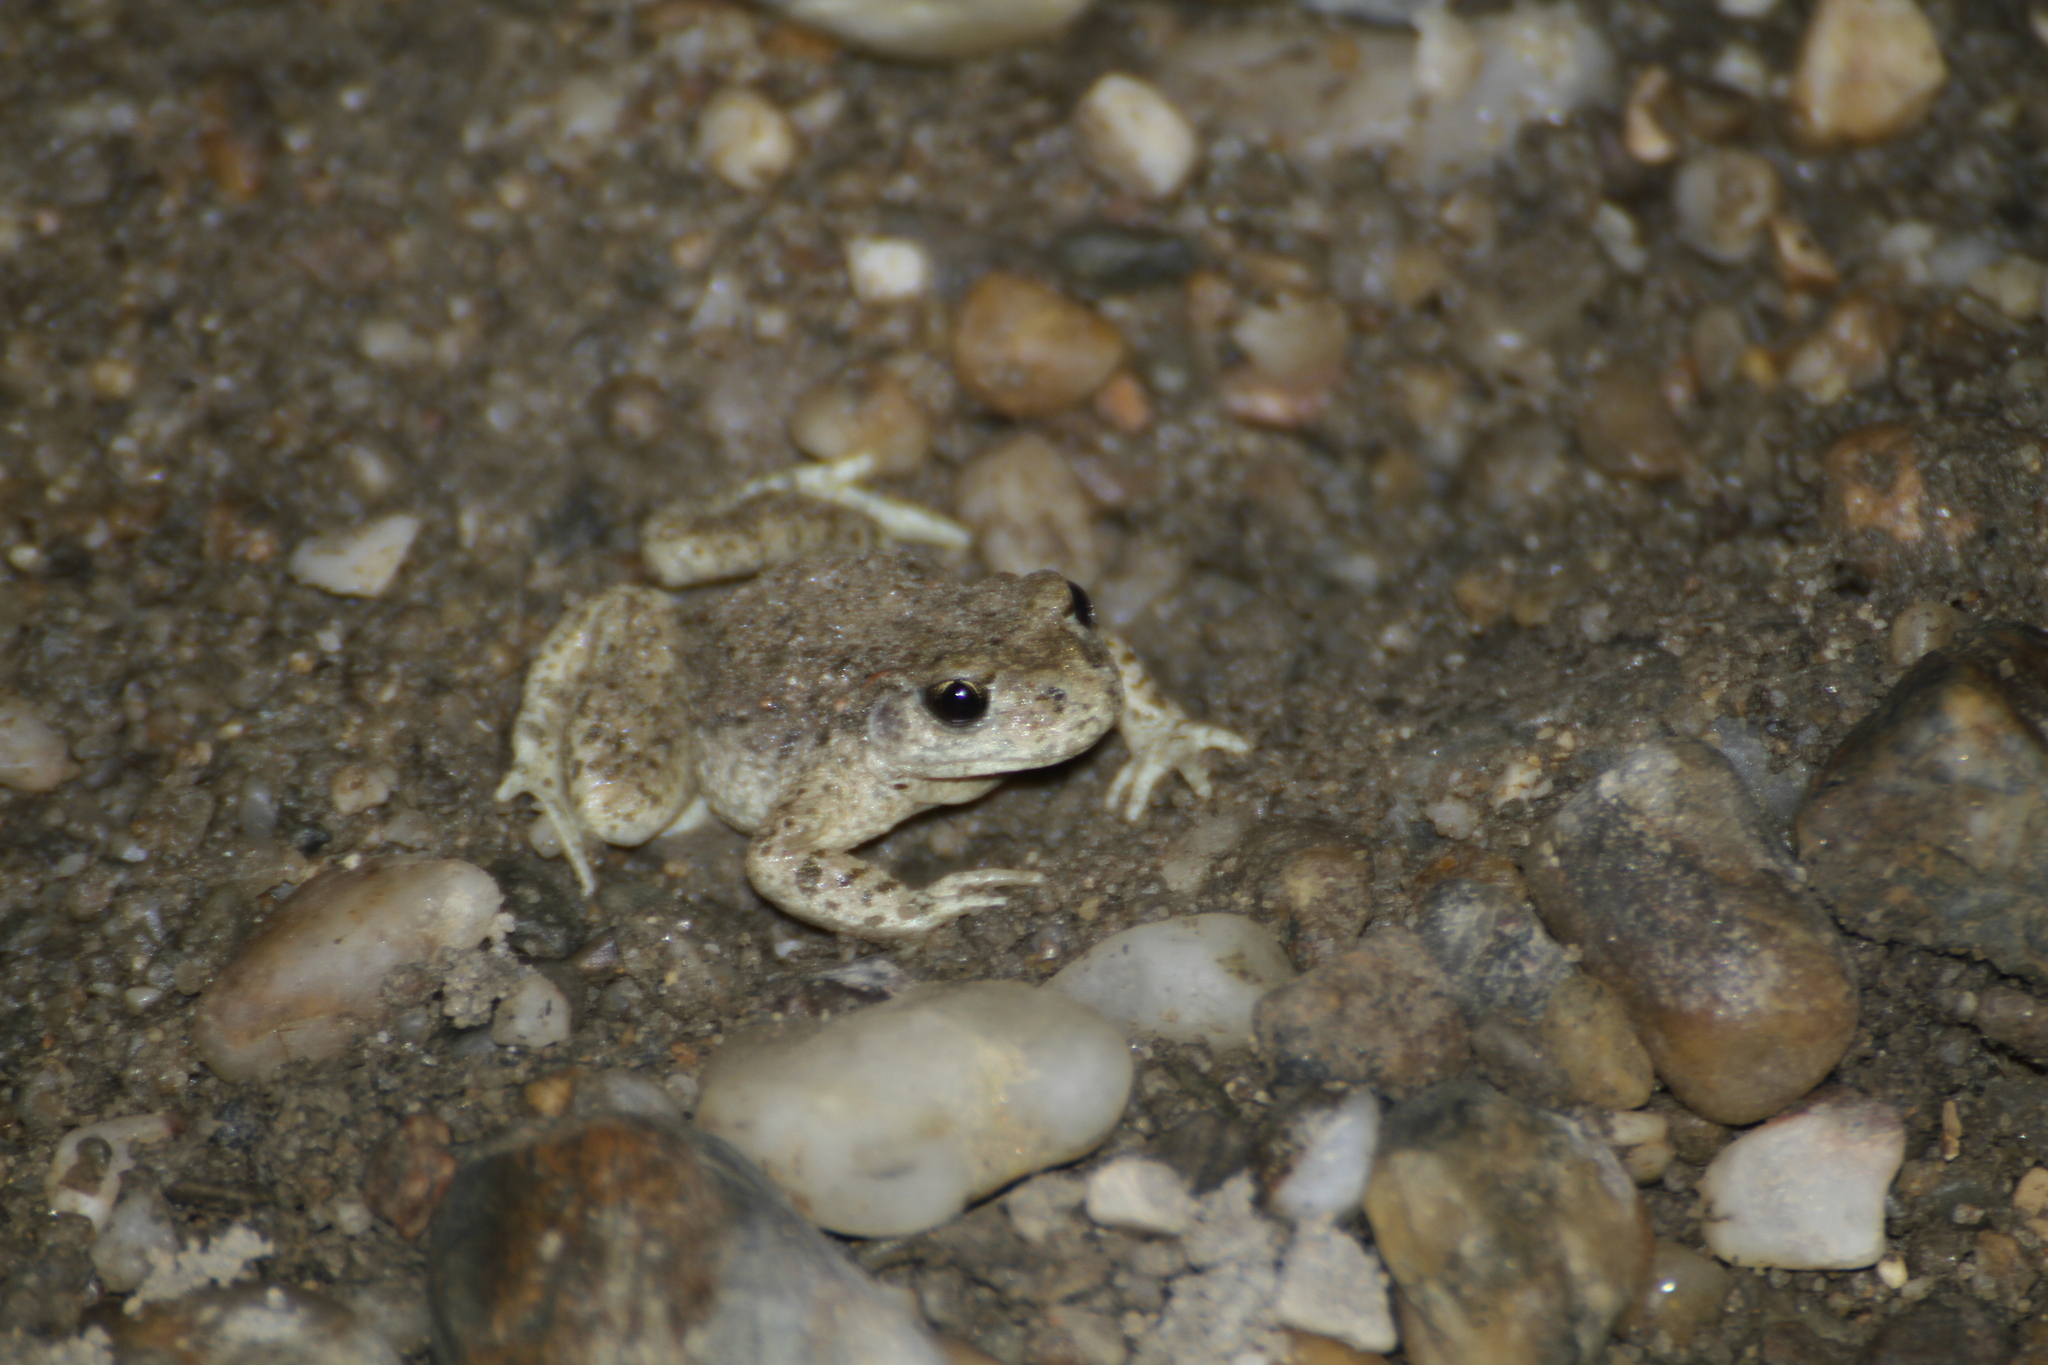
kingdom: Animalia
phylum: Chordata
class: Amphibia
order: Anura
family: Alytidae
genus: Alytes
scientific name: Alytes obstetricans
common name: Midwife toad
